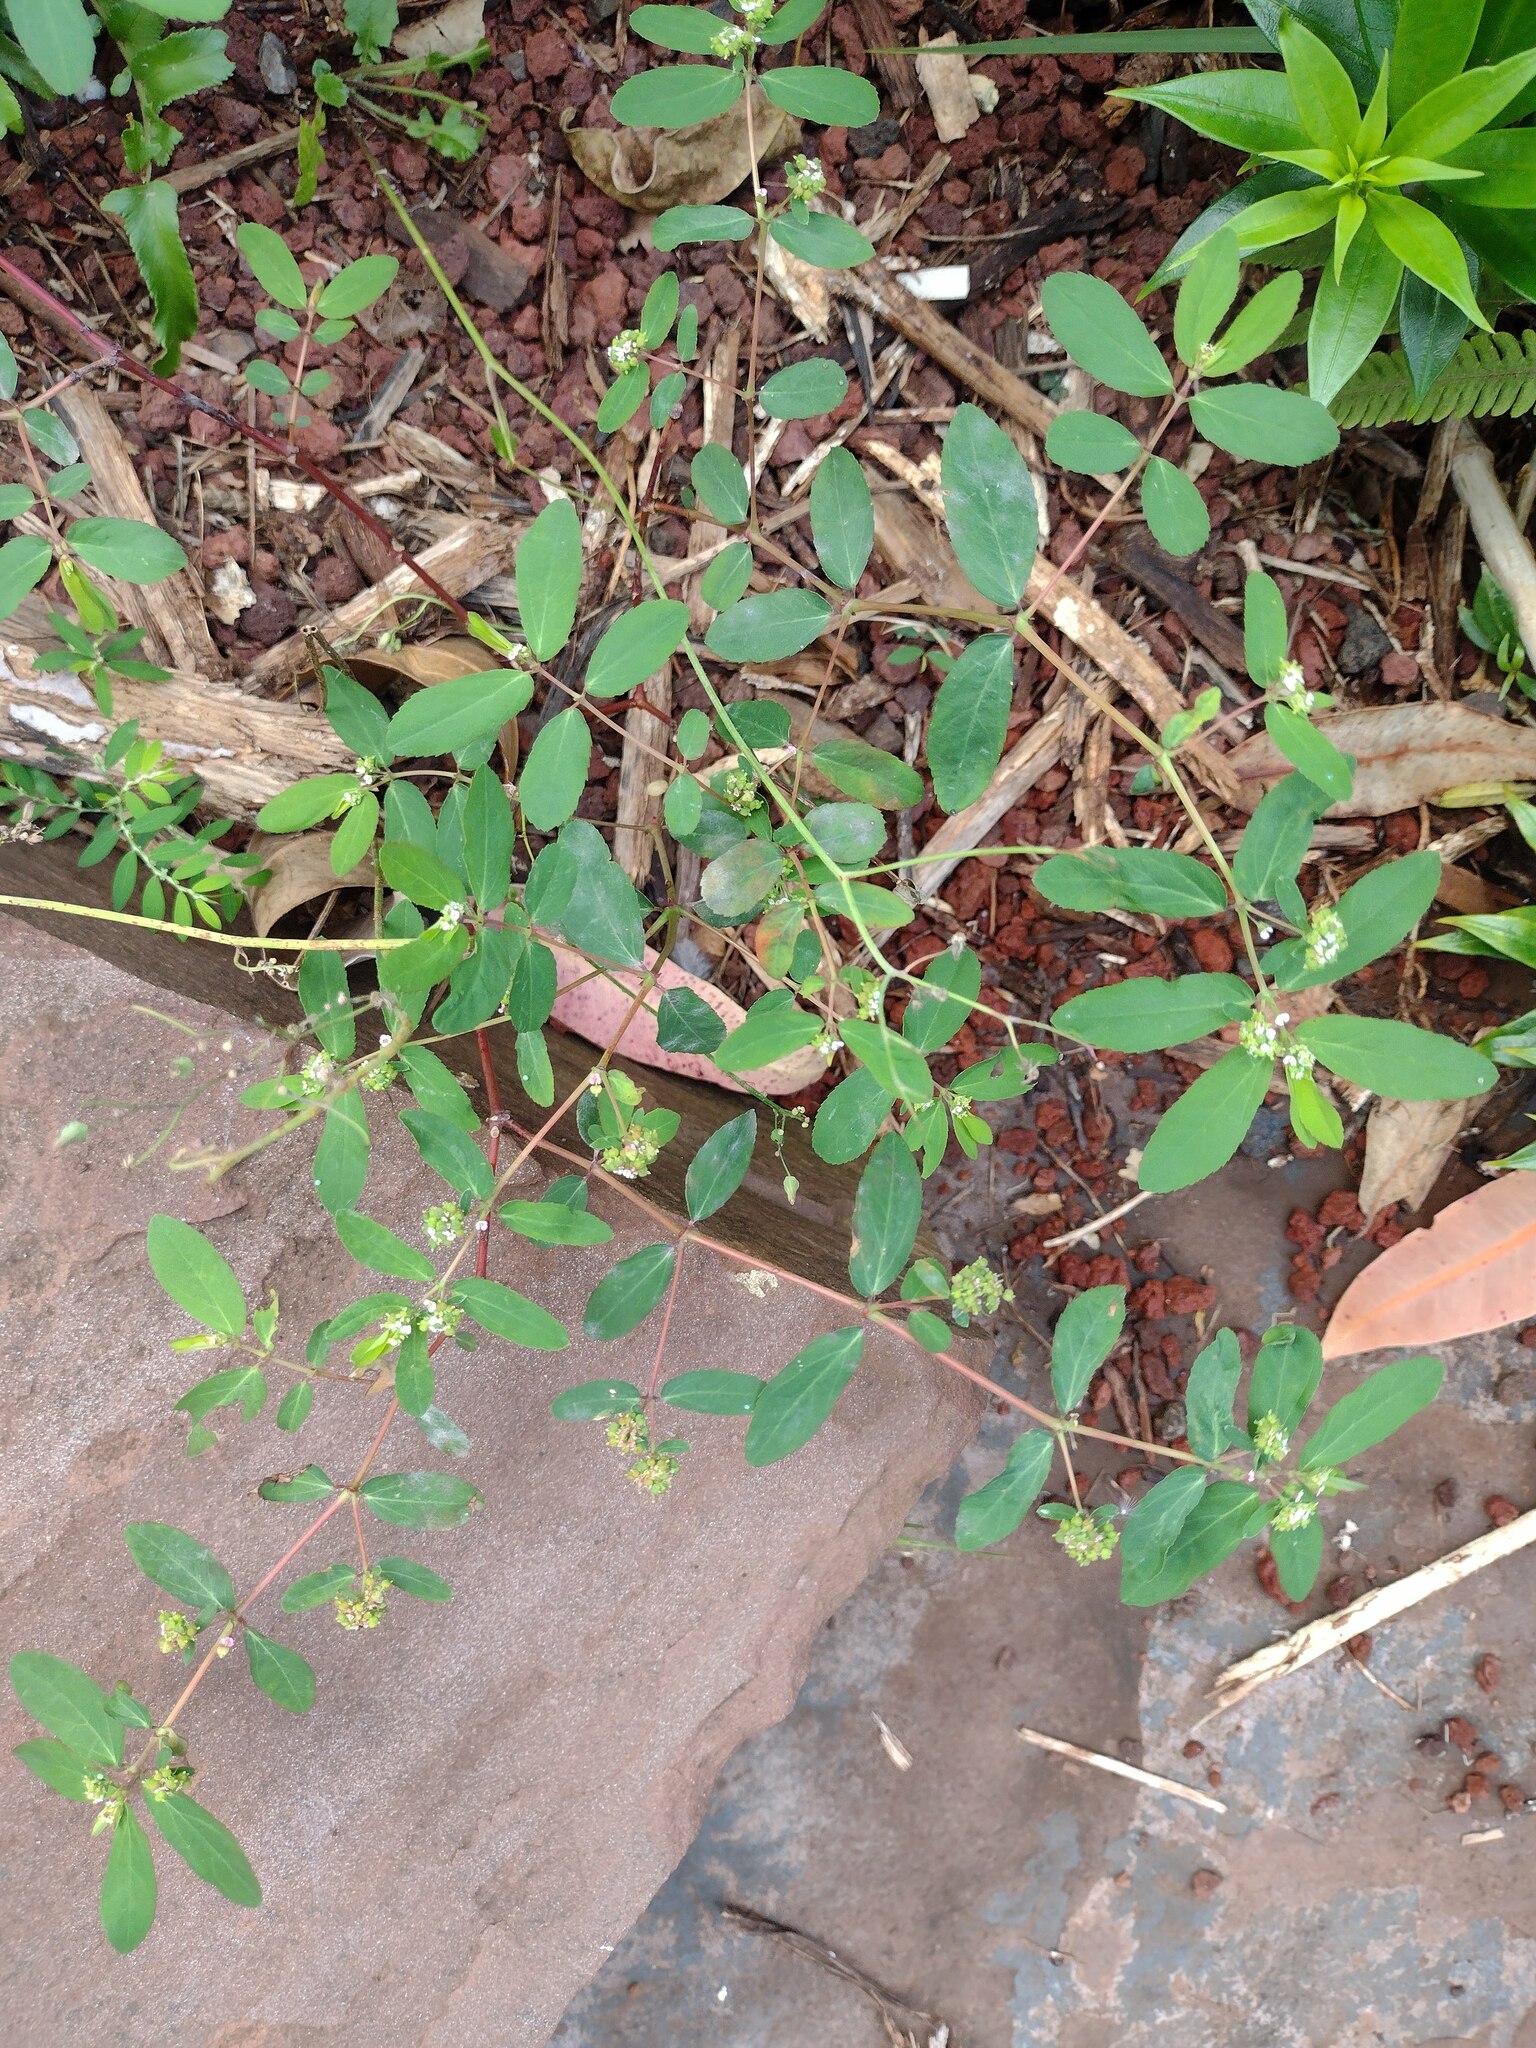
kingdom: Plantae
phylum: Tracheophyta
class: Magnoliopsida
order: Malpighiales
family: Euphorbiaceae
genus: Euphorbia
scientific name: Euphorbia hypericifolia
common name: Graceful sandmat
